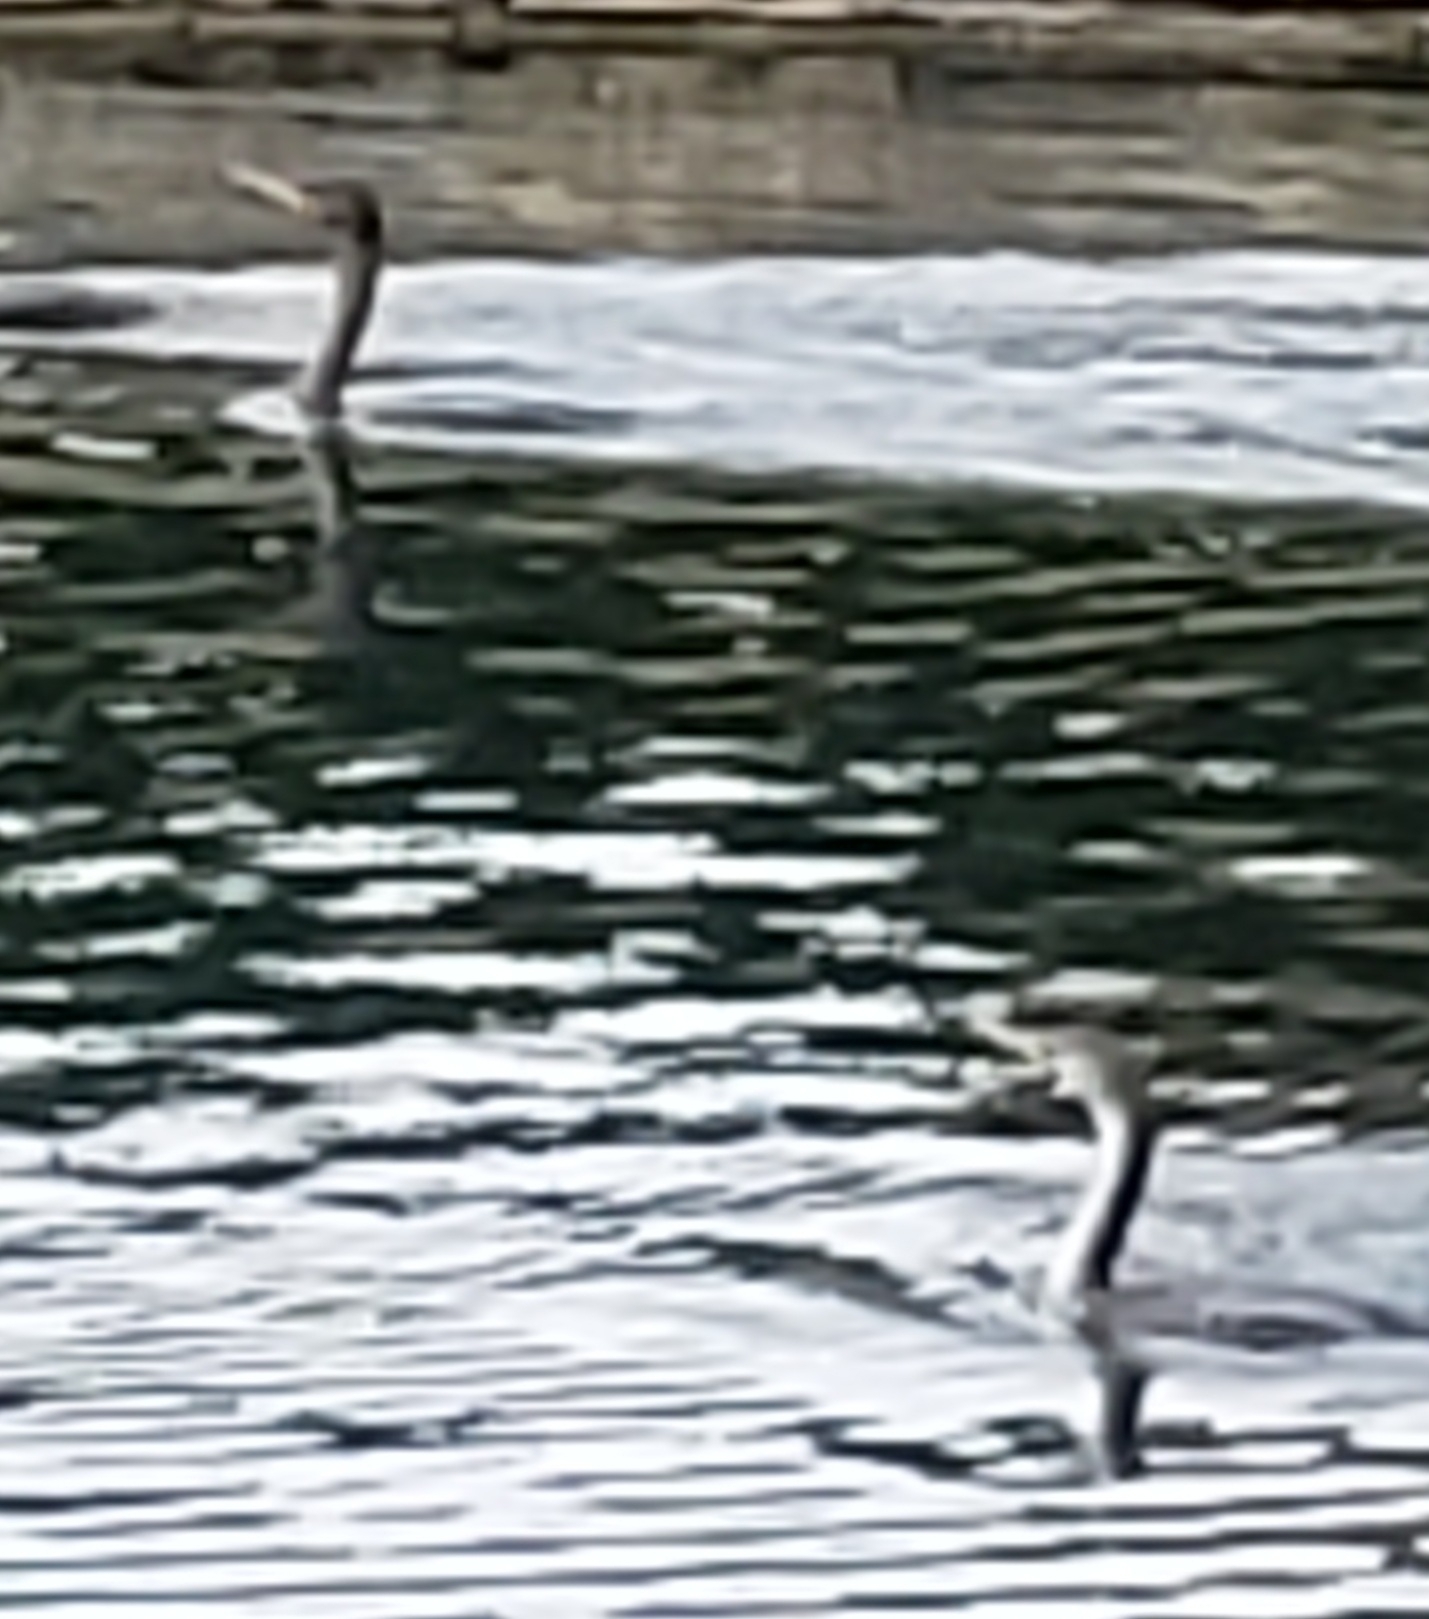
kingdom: Animalia
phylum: Chordata
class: Aves
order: Suliformes
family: Anhingidae
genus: Anhinga
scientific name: Anhinga anhinga
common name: Anhinga
